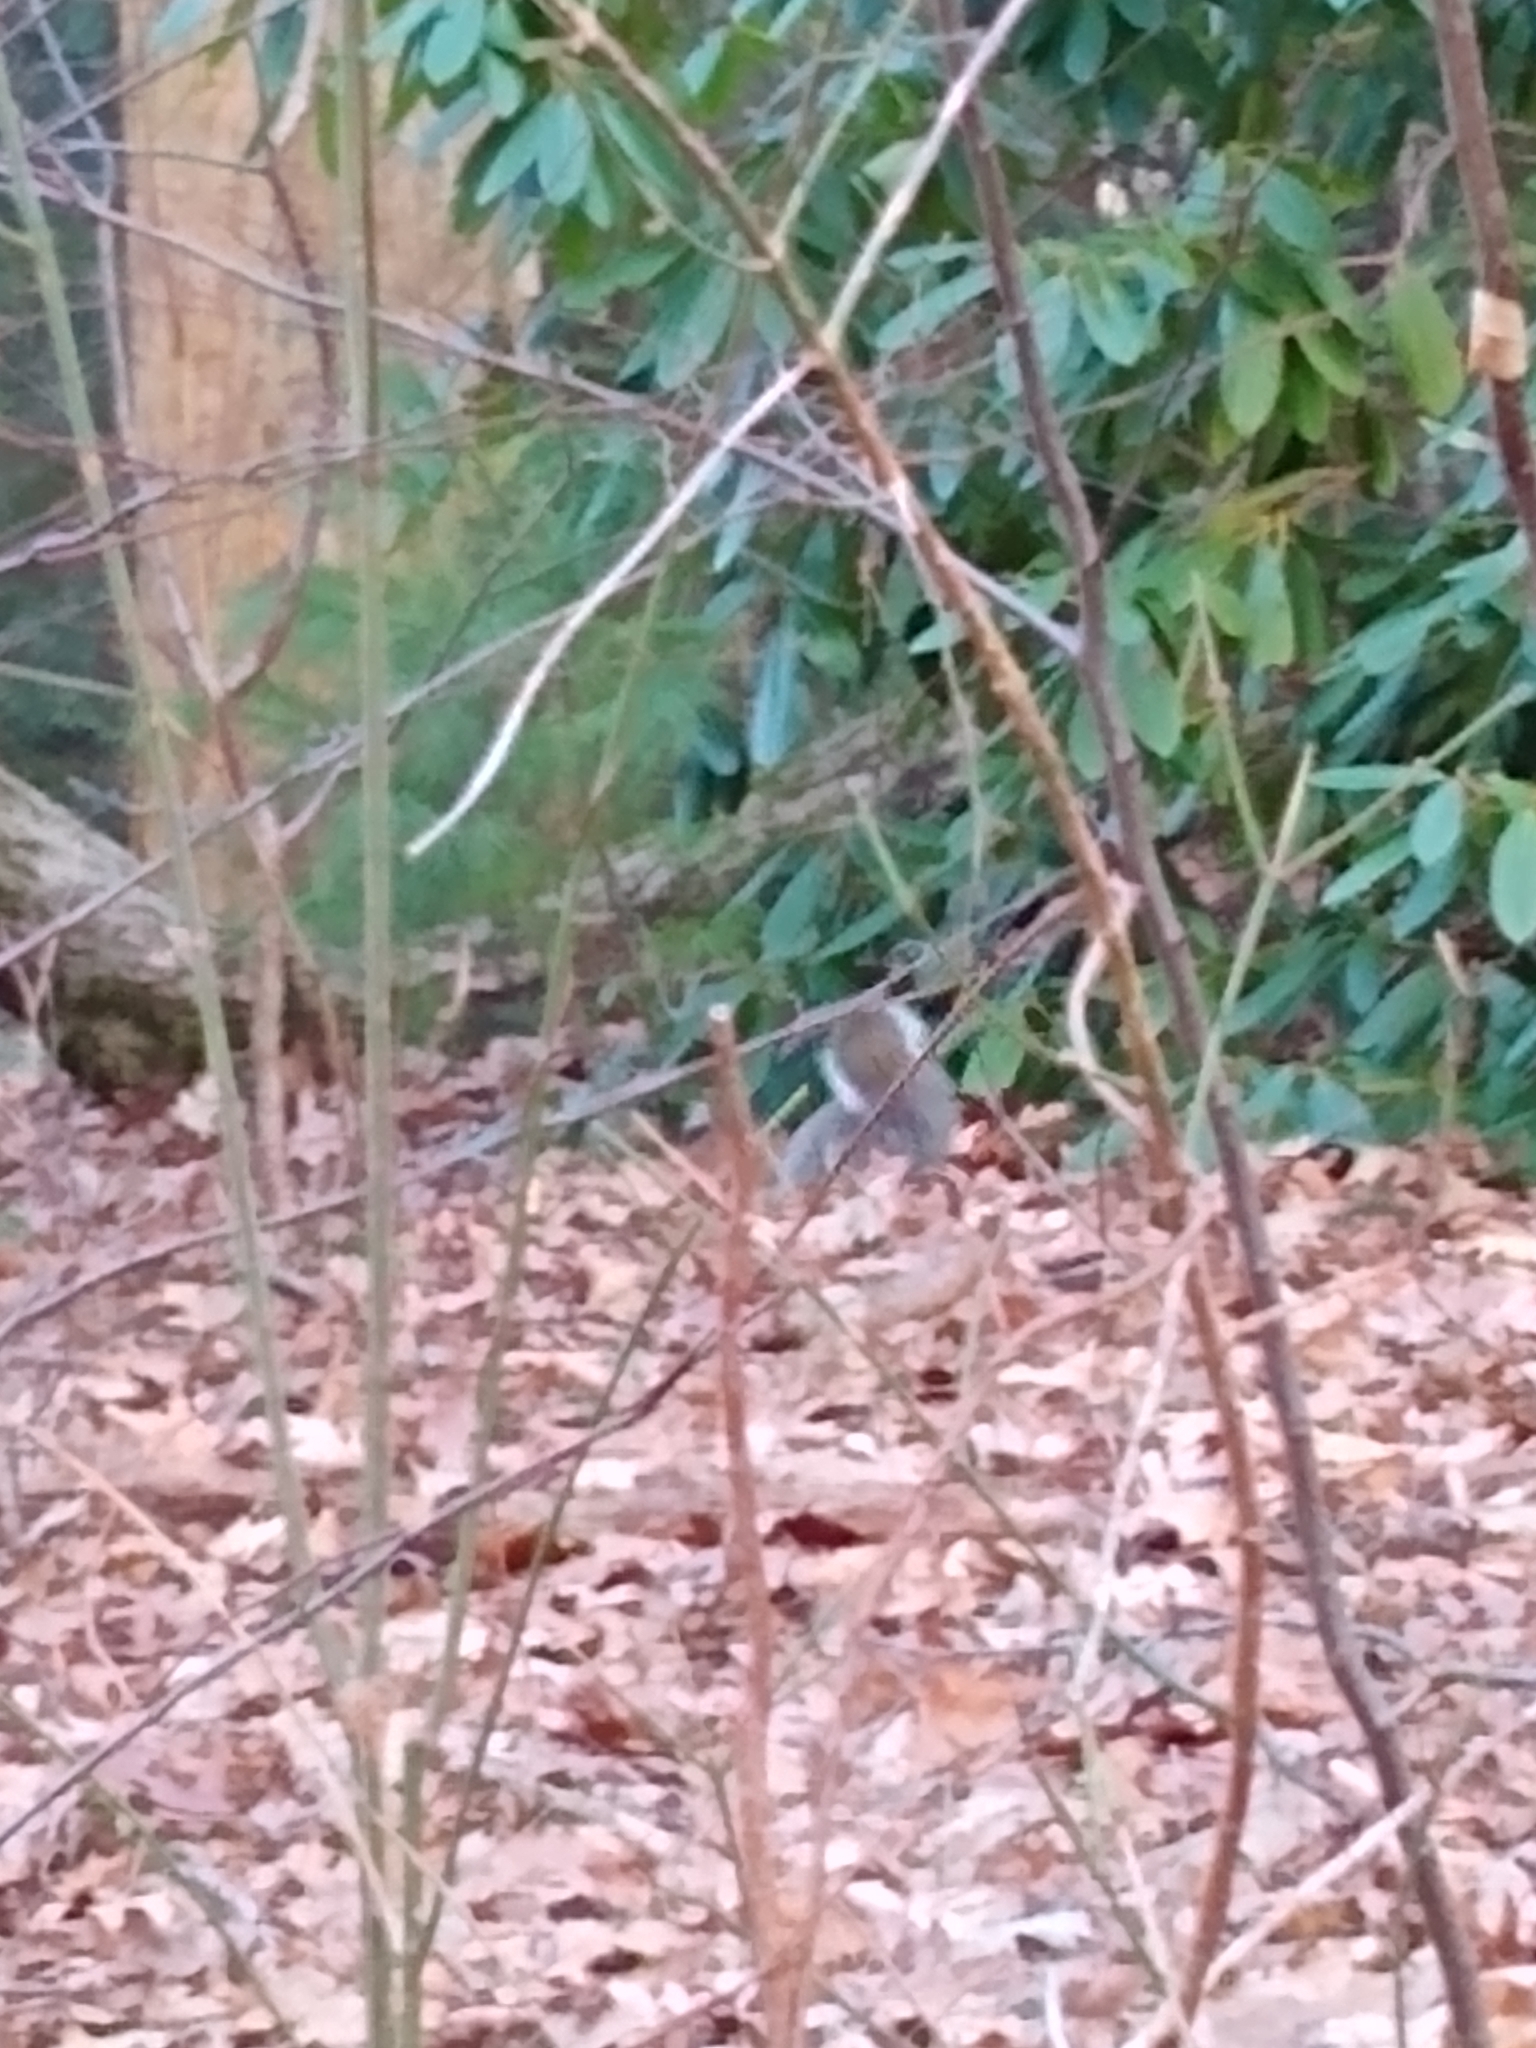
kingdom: Animalia
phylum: Chordata
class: Mammalia
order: Rodentia
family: Sciuridae
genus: Sciurus
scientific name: Sciurus carolinensis
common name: Eastern gray squirrel
